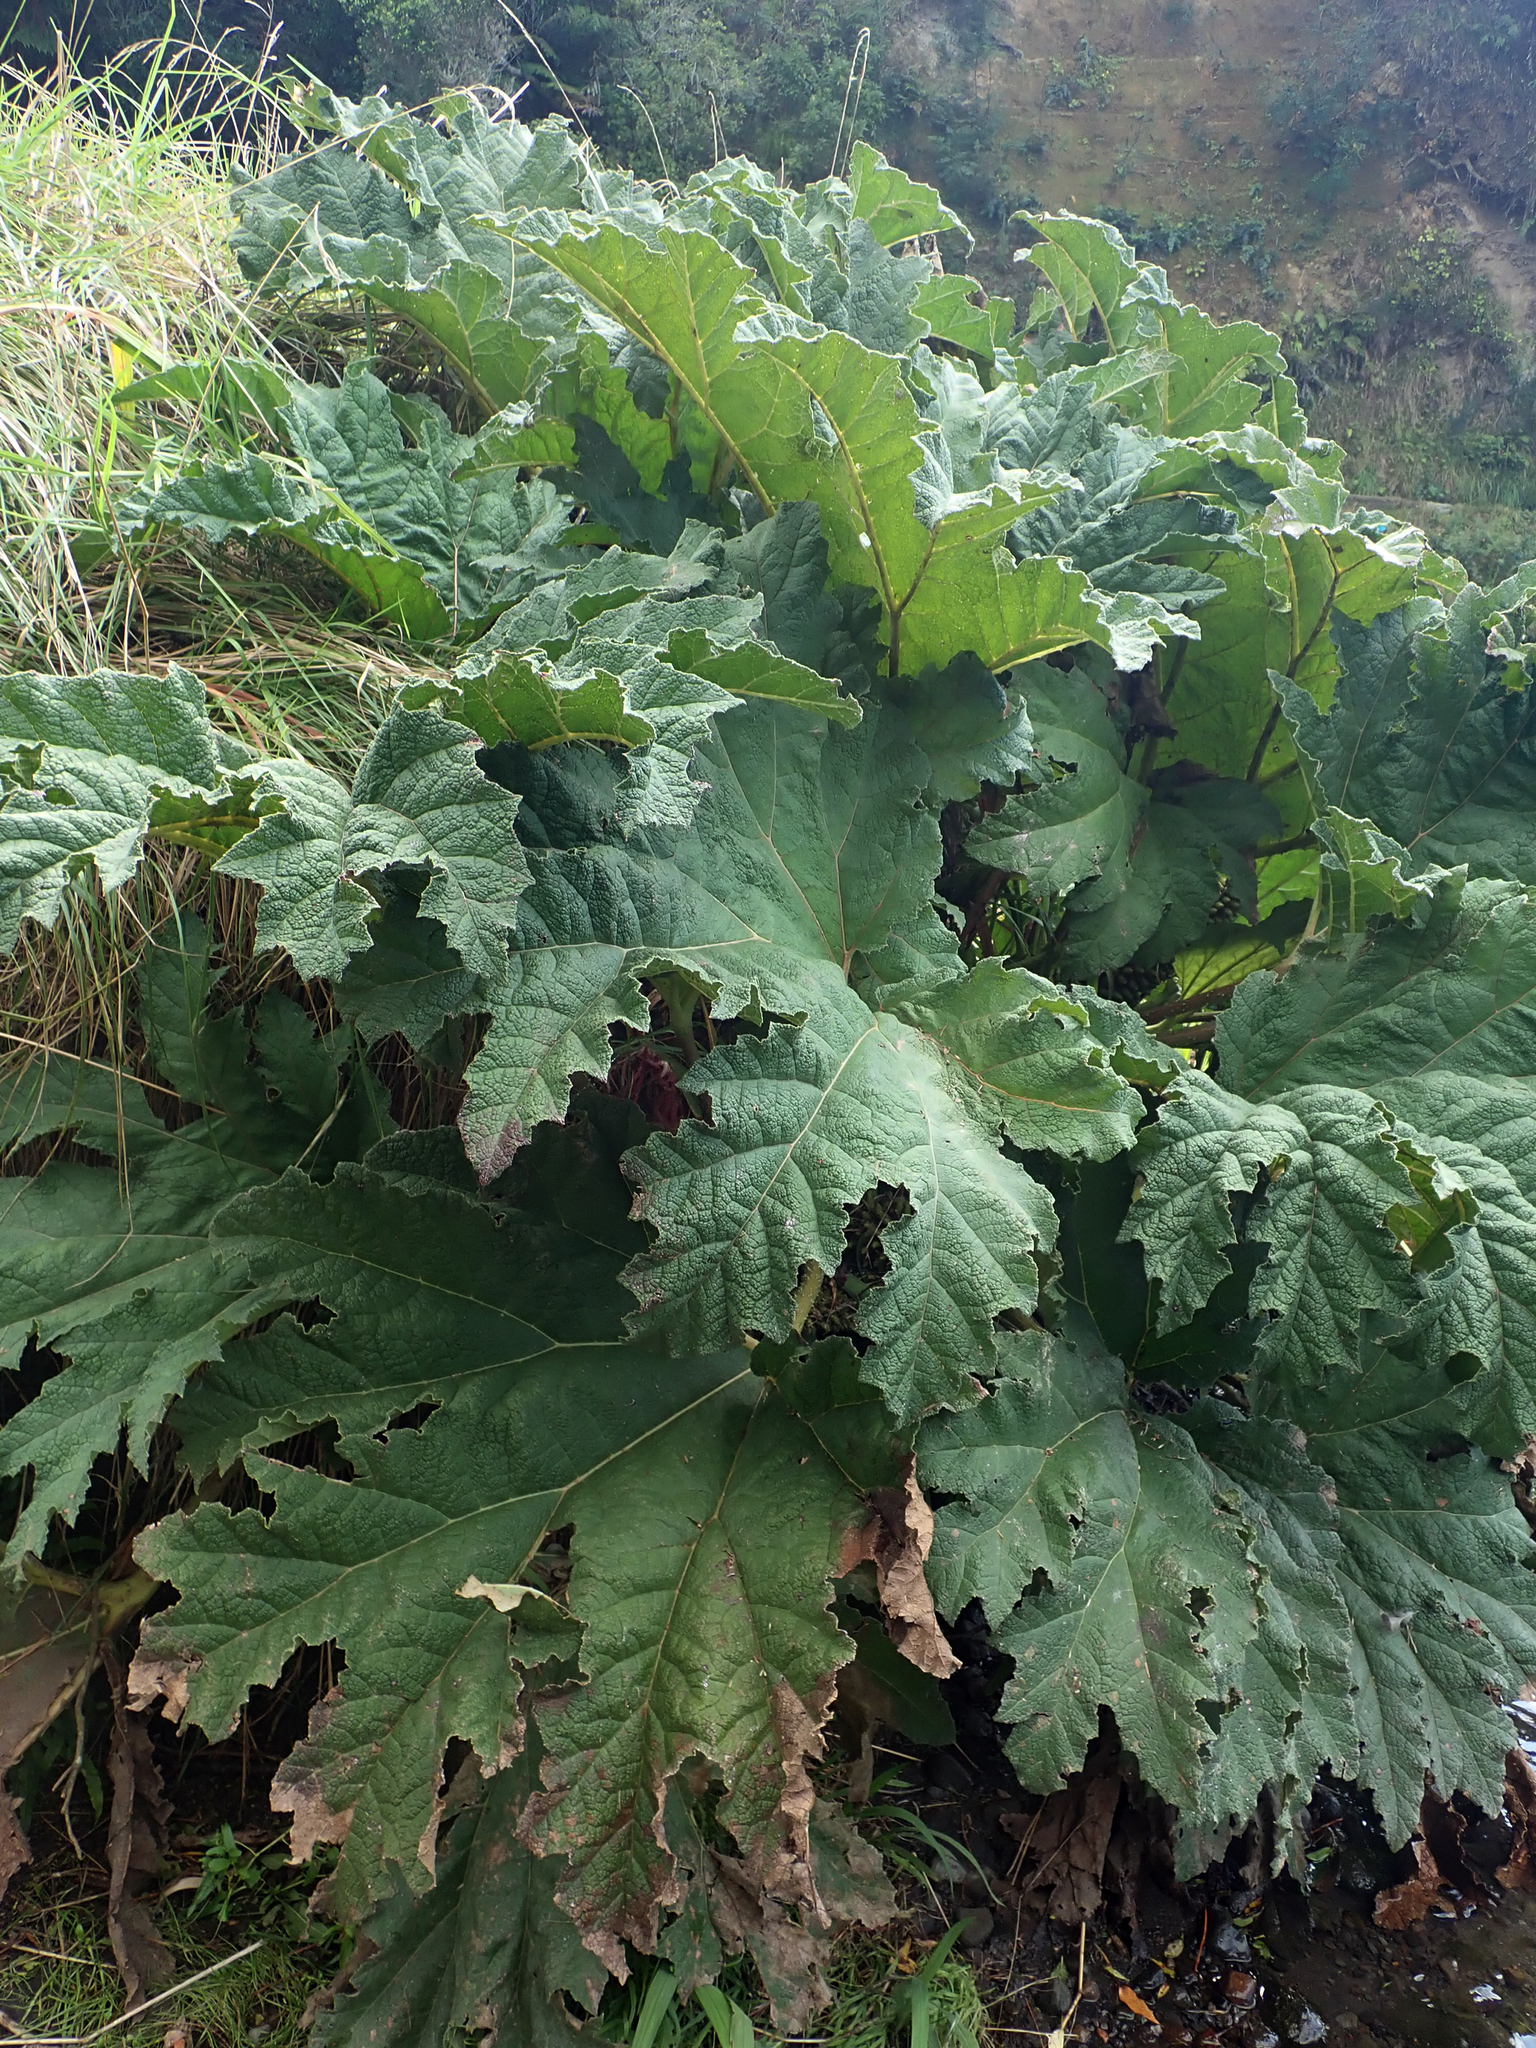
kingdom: Plantae
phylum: Tracheophyta
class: Magnoliopsida
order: Gunnerales
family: Gunneraceae
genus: Gunnera
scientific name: Gunnera tinctoria
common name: Giant-rhubarb
